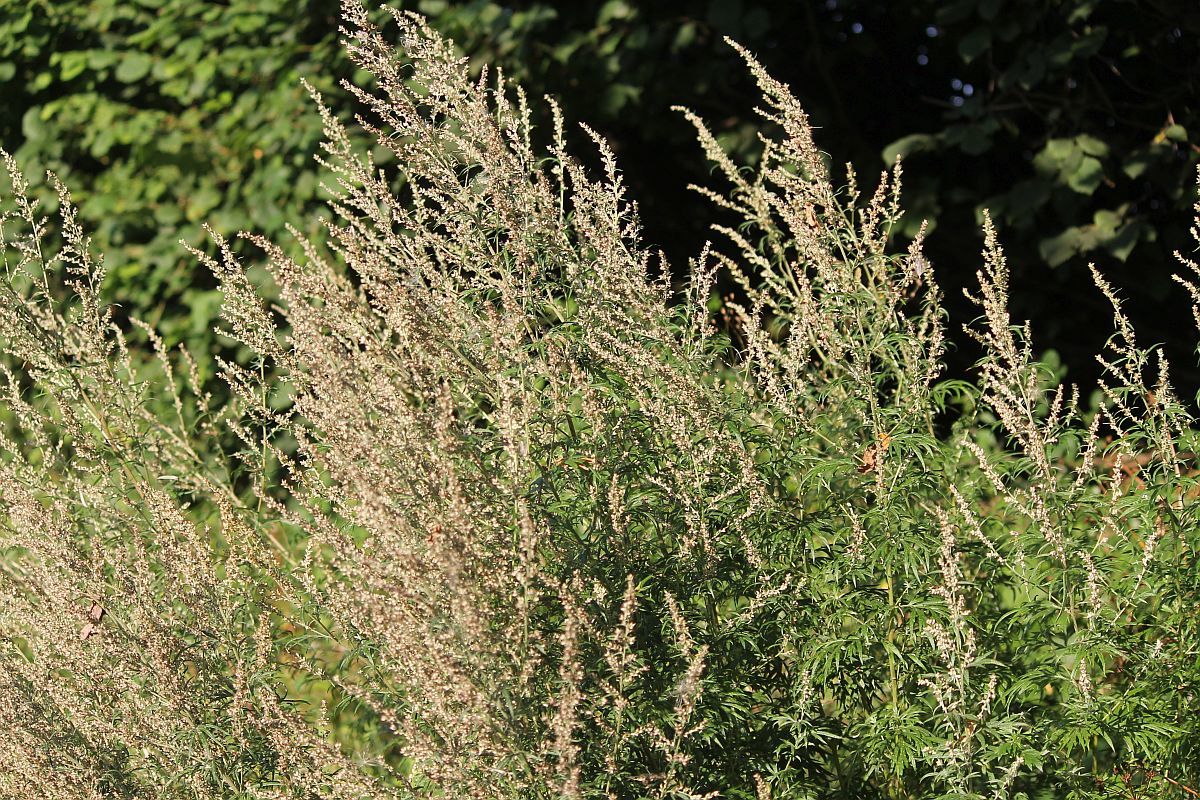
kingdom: Plantae
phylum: Tracheophyta
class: Magnoliopsida
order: Asterales
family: Asteraceae
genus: Artemisia
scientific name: Artemisia vulgaris
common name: Mugwort
